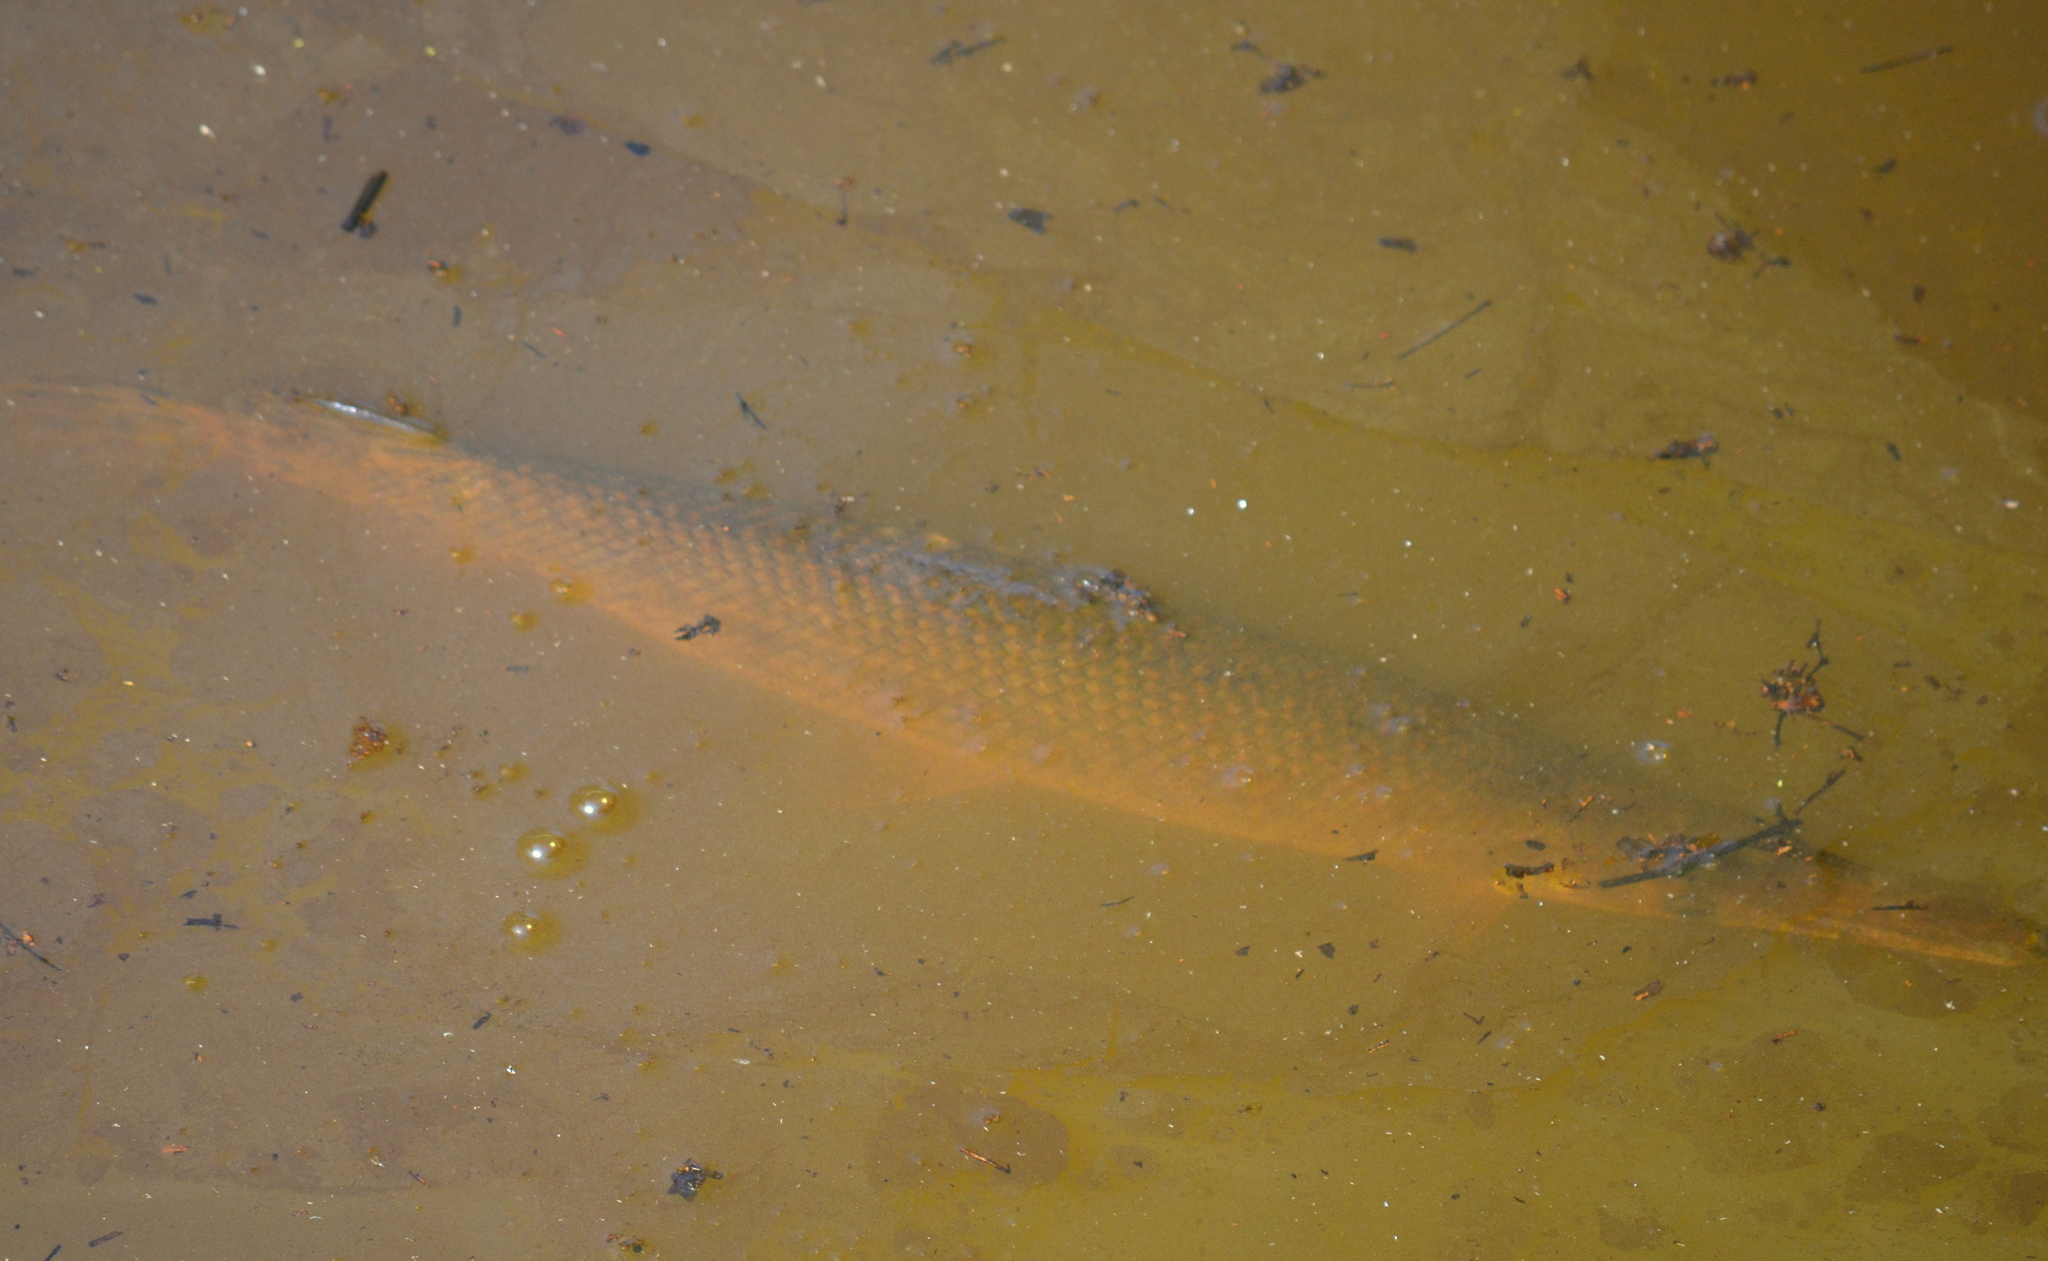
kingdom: Animalia
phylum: Chordata
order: Lepisosteiformes
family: Lepisosteidae
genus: Atractosteus
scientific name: Atractosteus spatula
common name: Alligator gar
